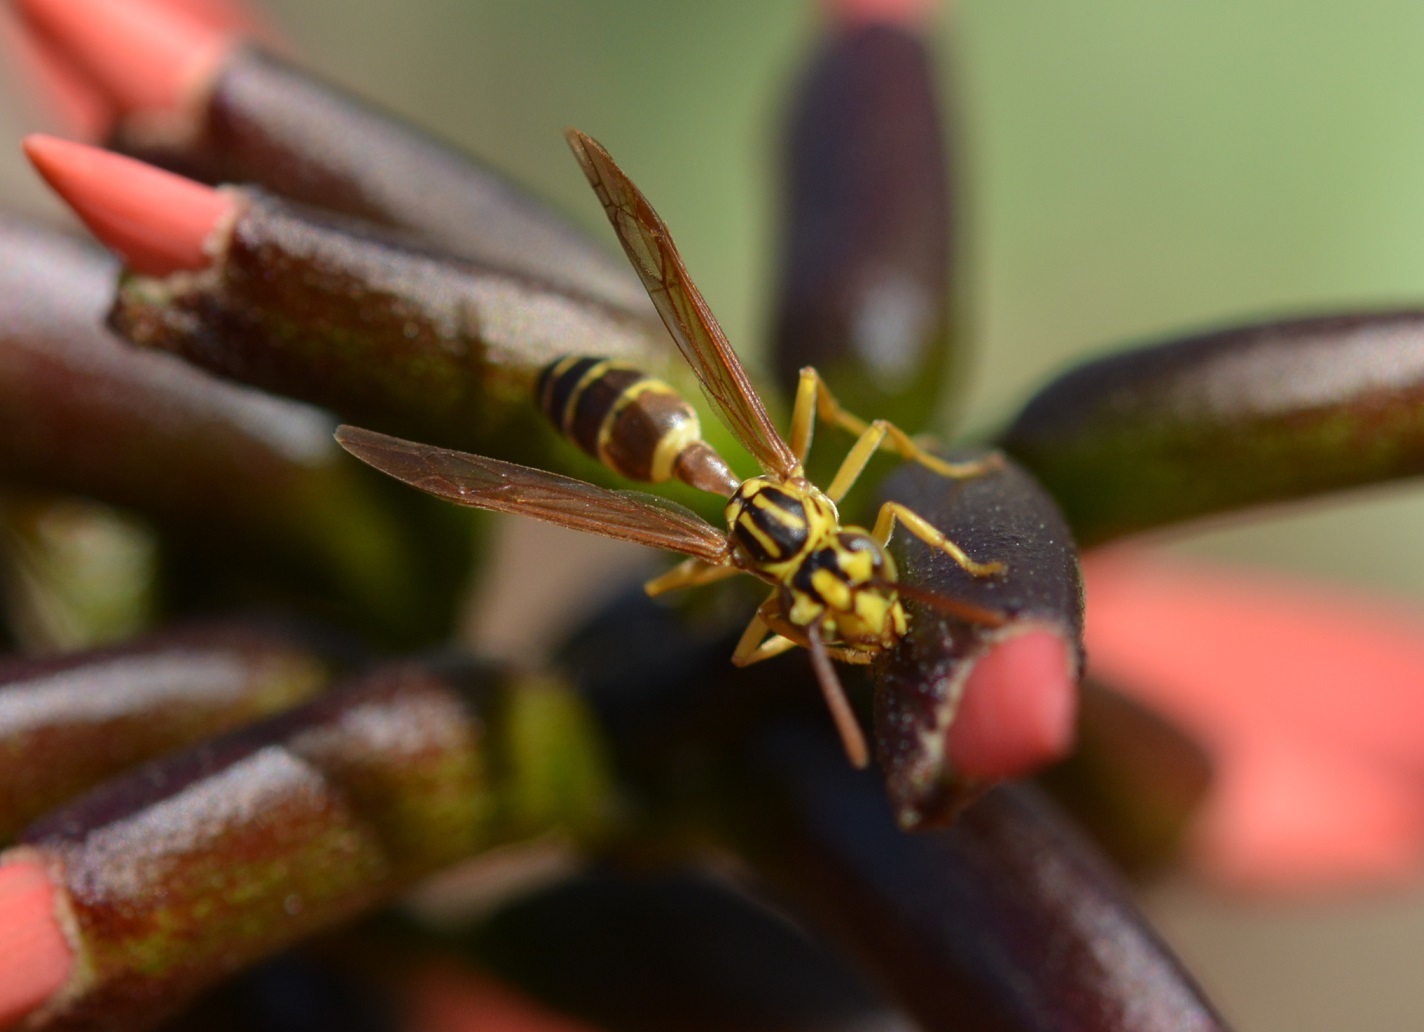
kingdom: Animalia
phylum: Arthropoda
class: Insecta
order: Hymenoptera
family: Vespidae
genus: Agelaia
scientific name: Agelaia yepocapa
